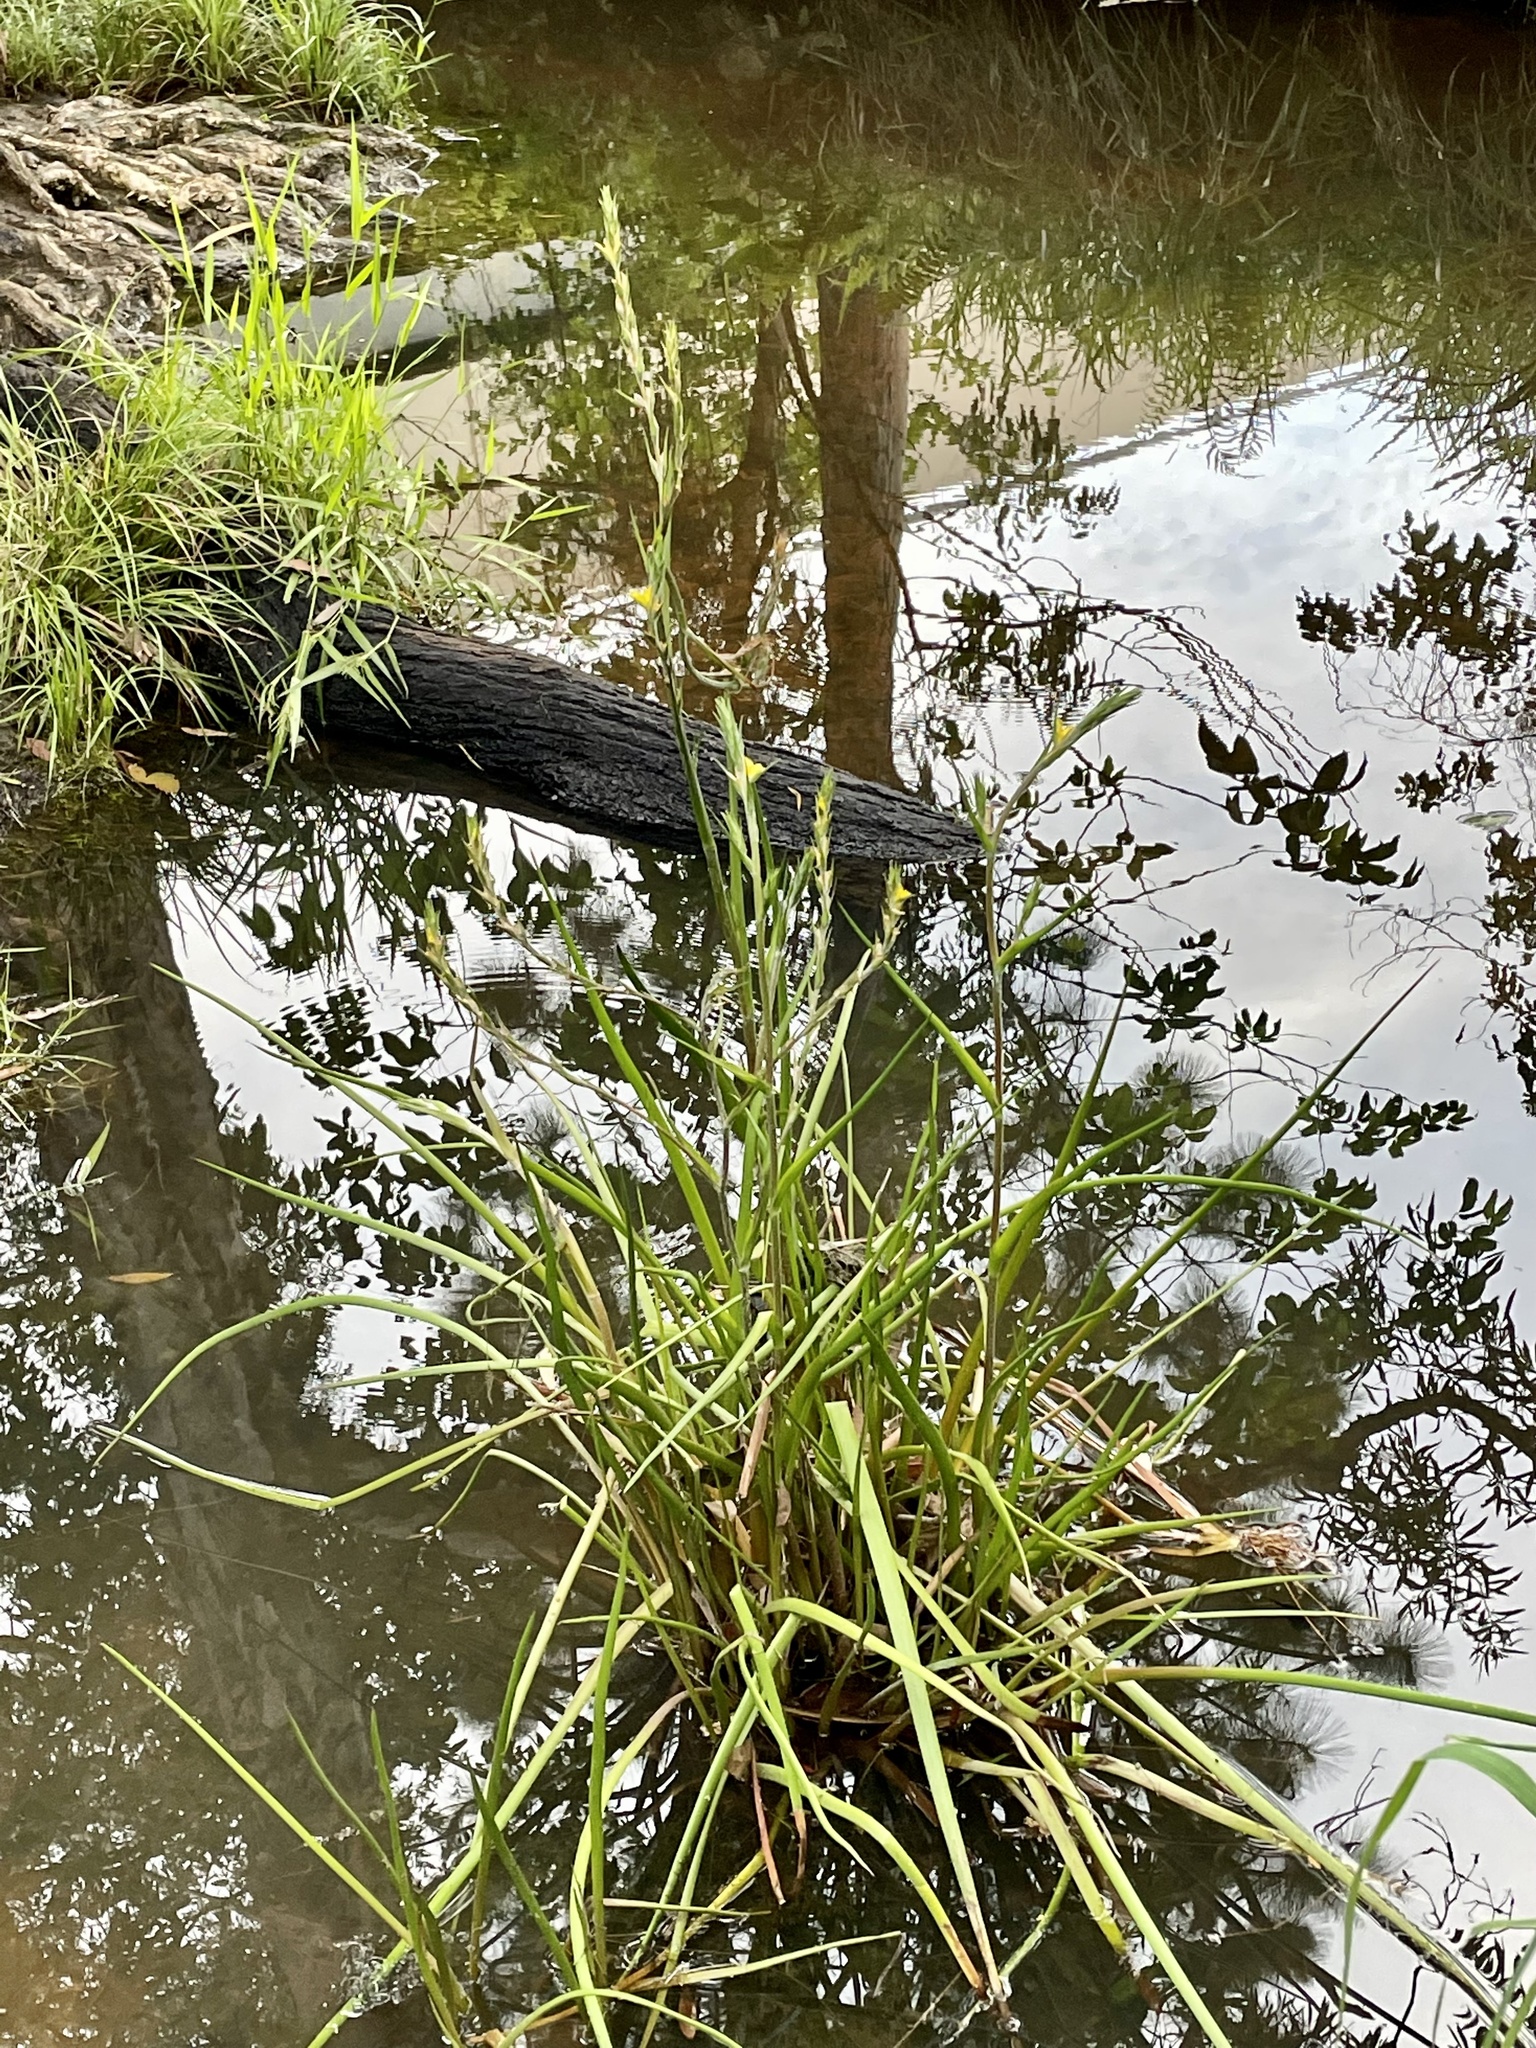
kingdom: Plantae
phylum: Tracheophyta
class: Liliopsida
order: Commelinales
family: Philydraceae
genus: Philydrum
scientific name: Philydrum lanuginosum
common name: Woolly frog's mouth
